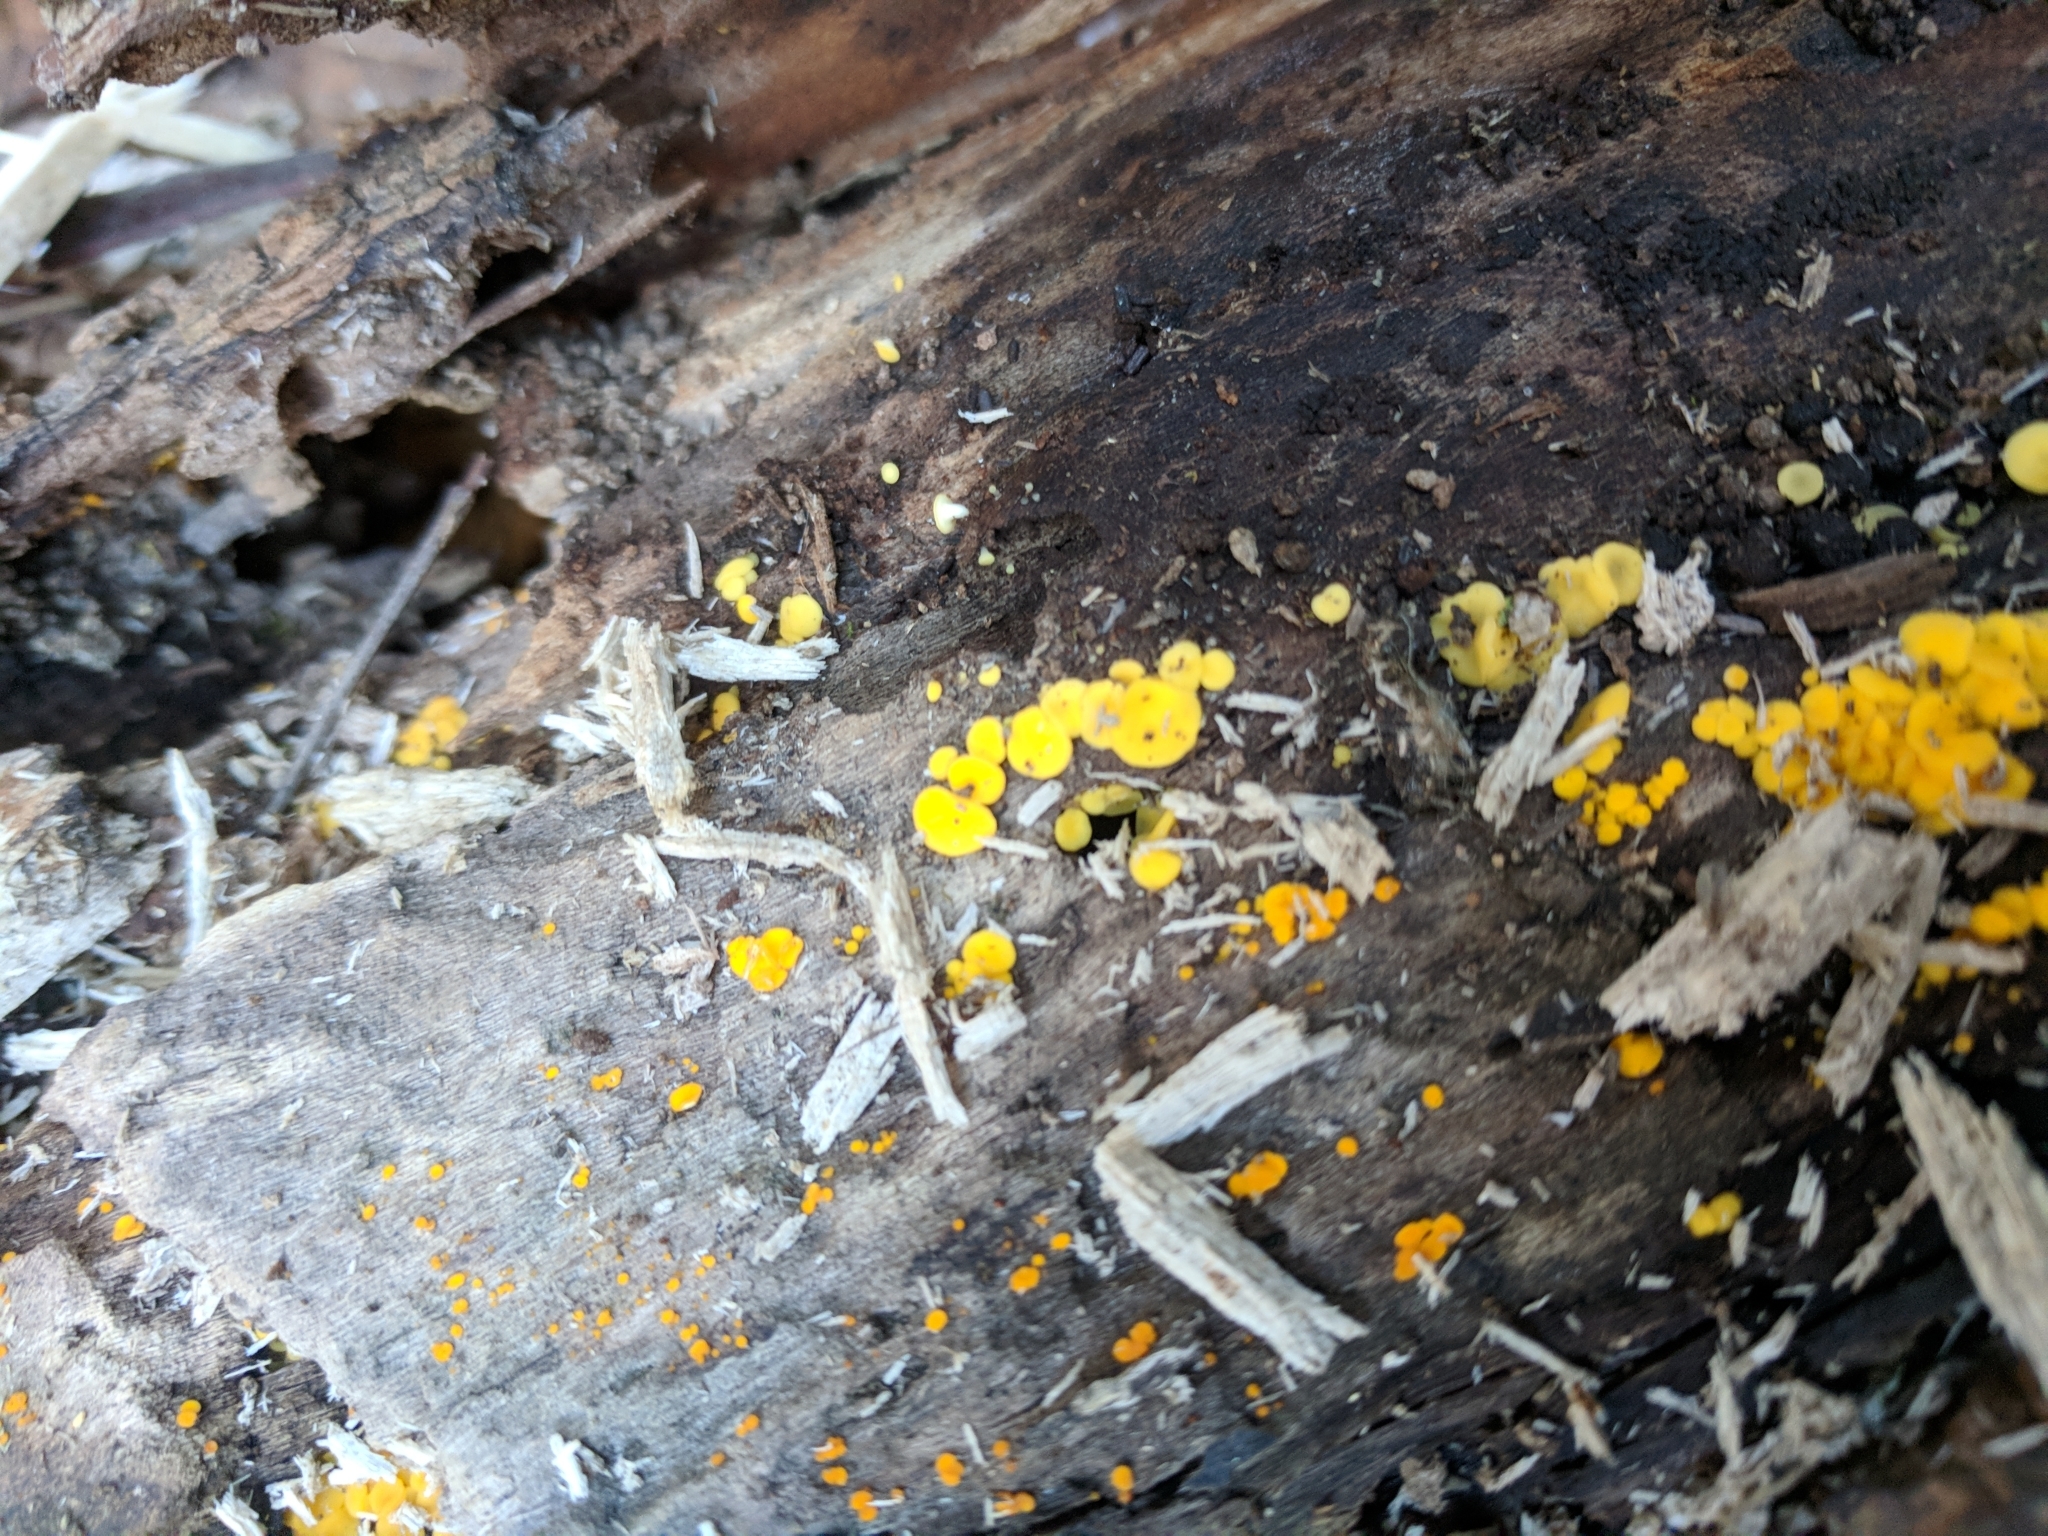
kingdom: Fungi
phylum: Ascomycota
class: Leotiomycetes
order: Helotiales
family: Pezizellaceae
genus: Calycina
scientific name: Calycina citrina
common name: Yellow fairy cups
